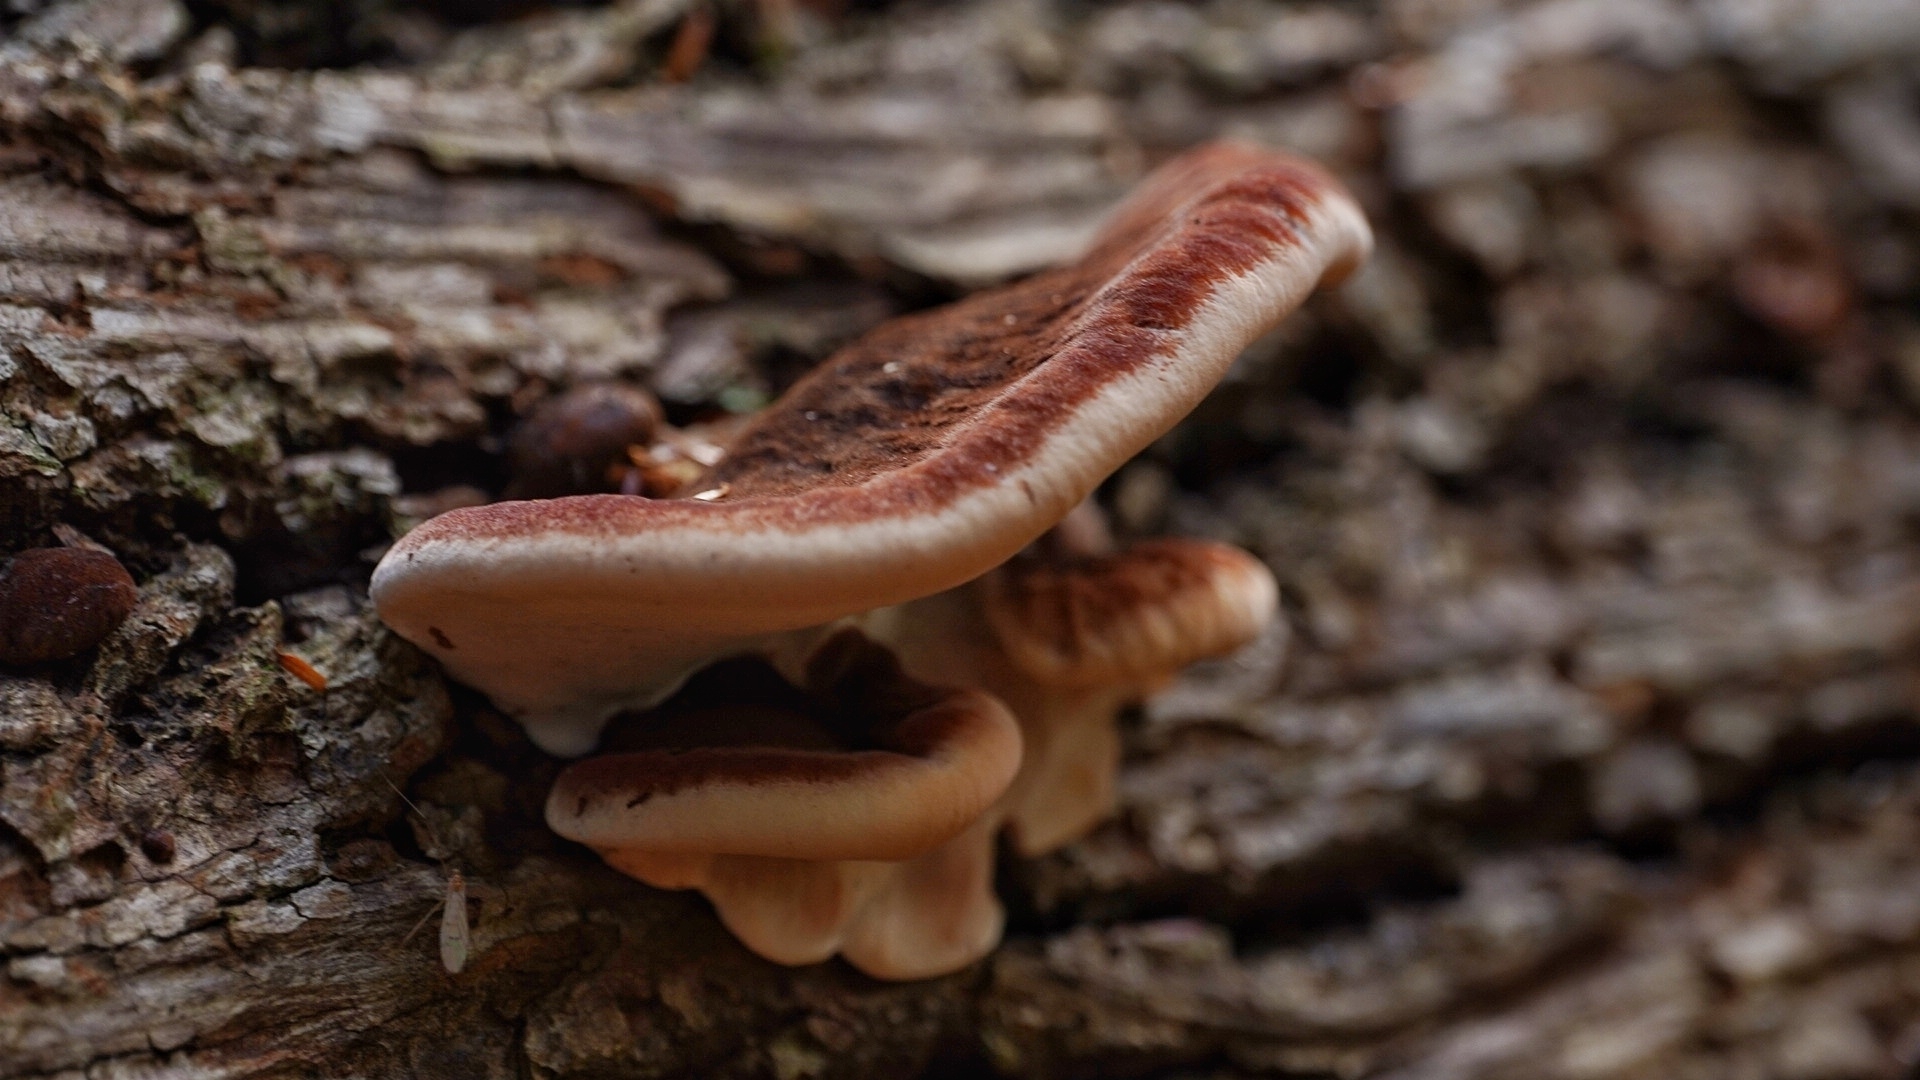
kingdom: Fungi
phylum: Basidiomycota
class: Agaricomycetes
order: Polyporales
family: Ischnodermataceae
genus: Ischnoderma
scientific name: Ischnoderma resinosum
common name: Resinous polypore
